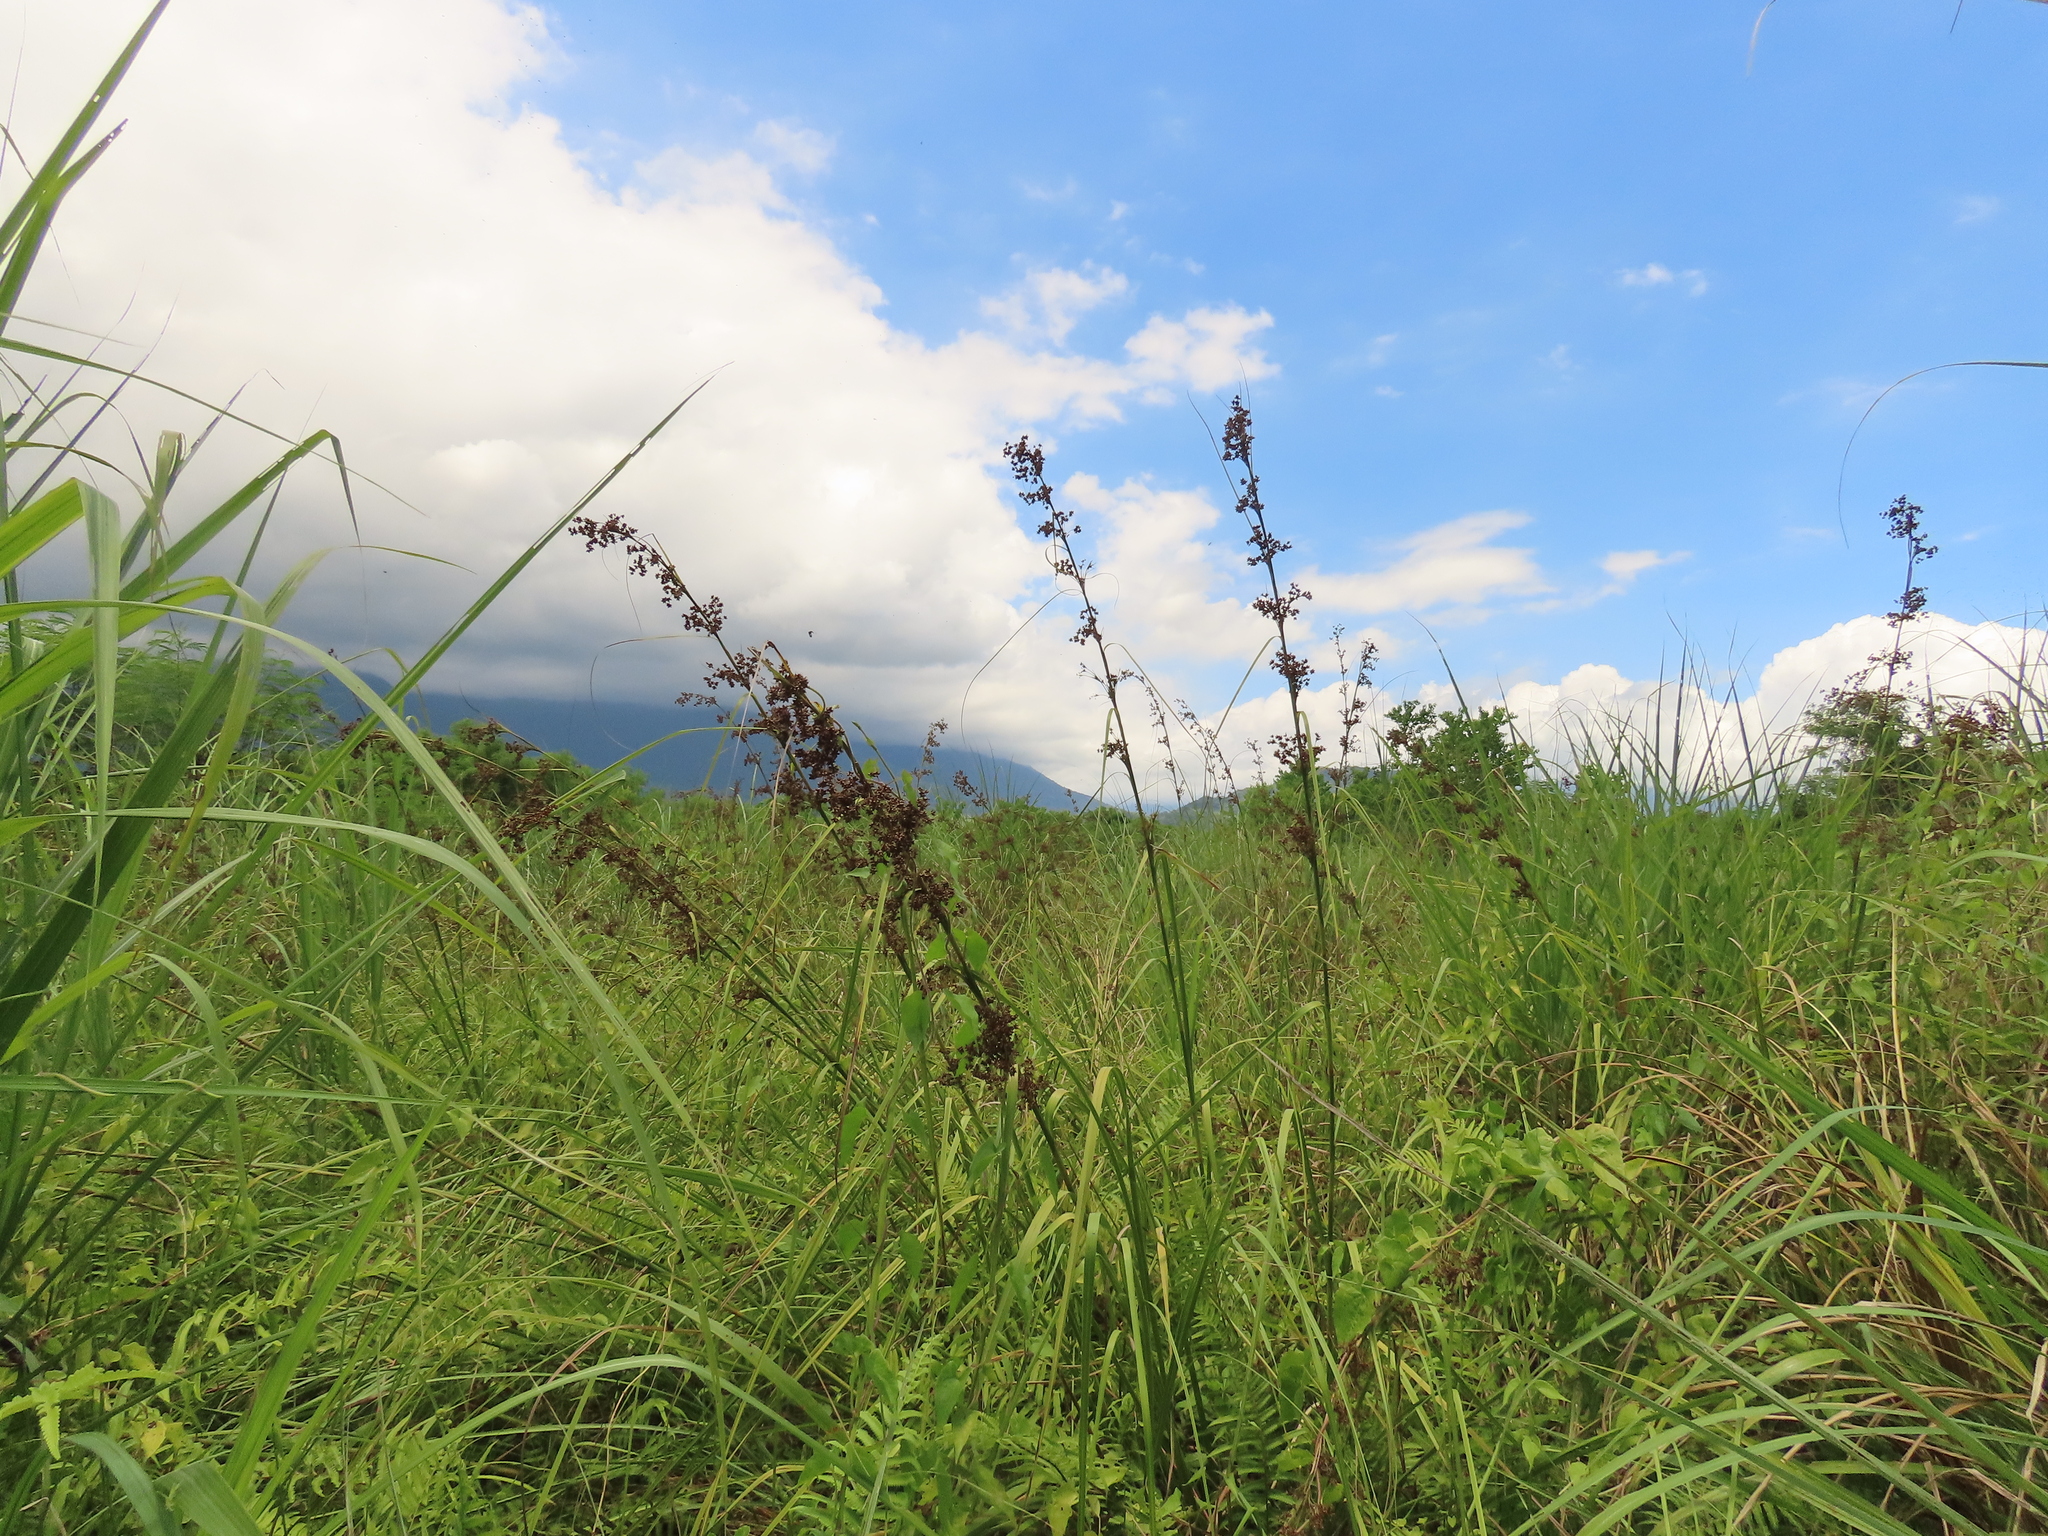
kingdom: Plantae
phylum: Tracheophyta
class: Liliopsida
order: Poales
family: Cyperaceae
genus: Cladium
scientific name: Cladium mariscus
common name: Great fen-sedge
